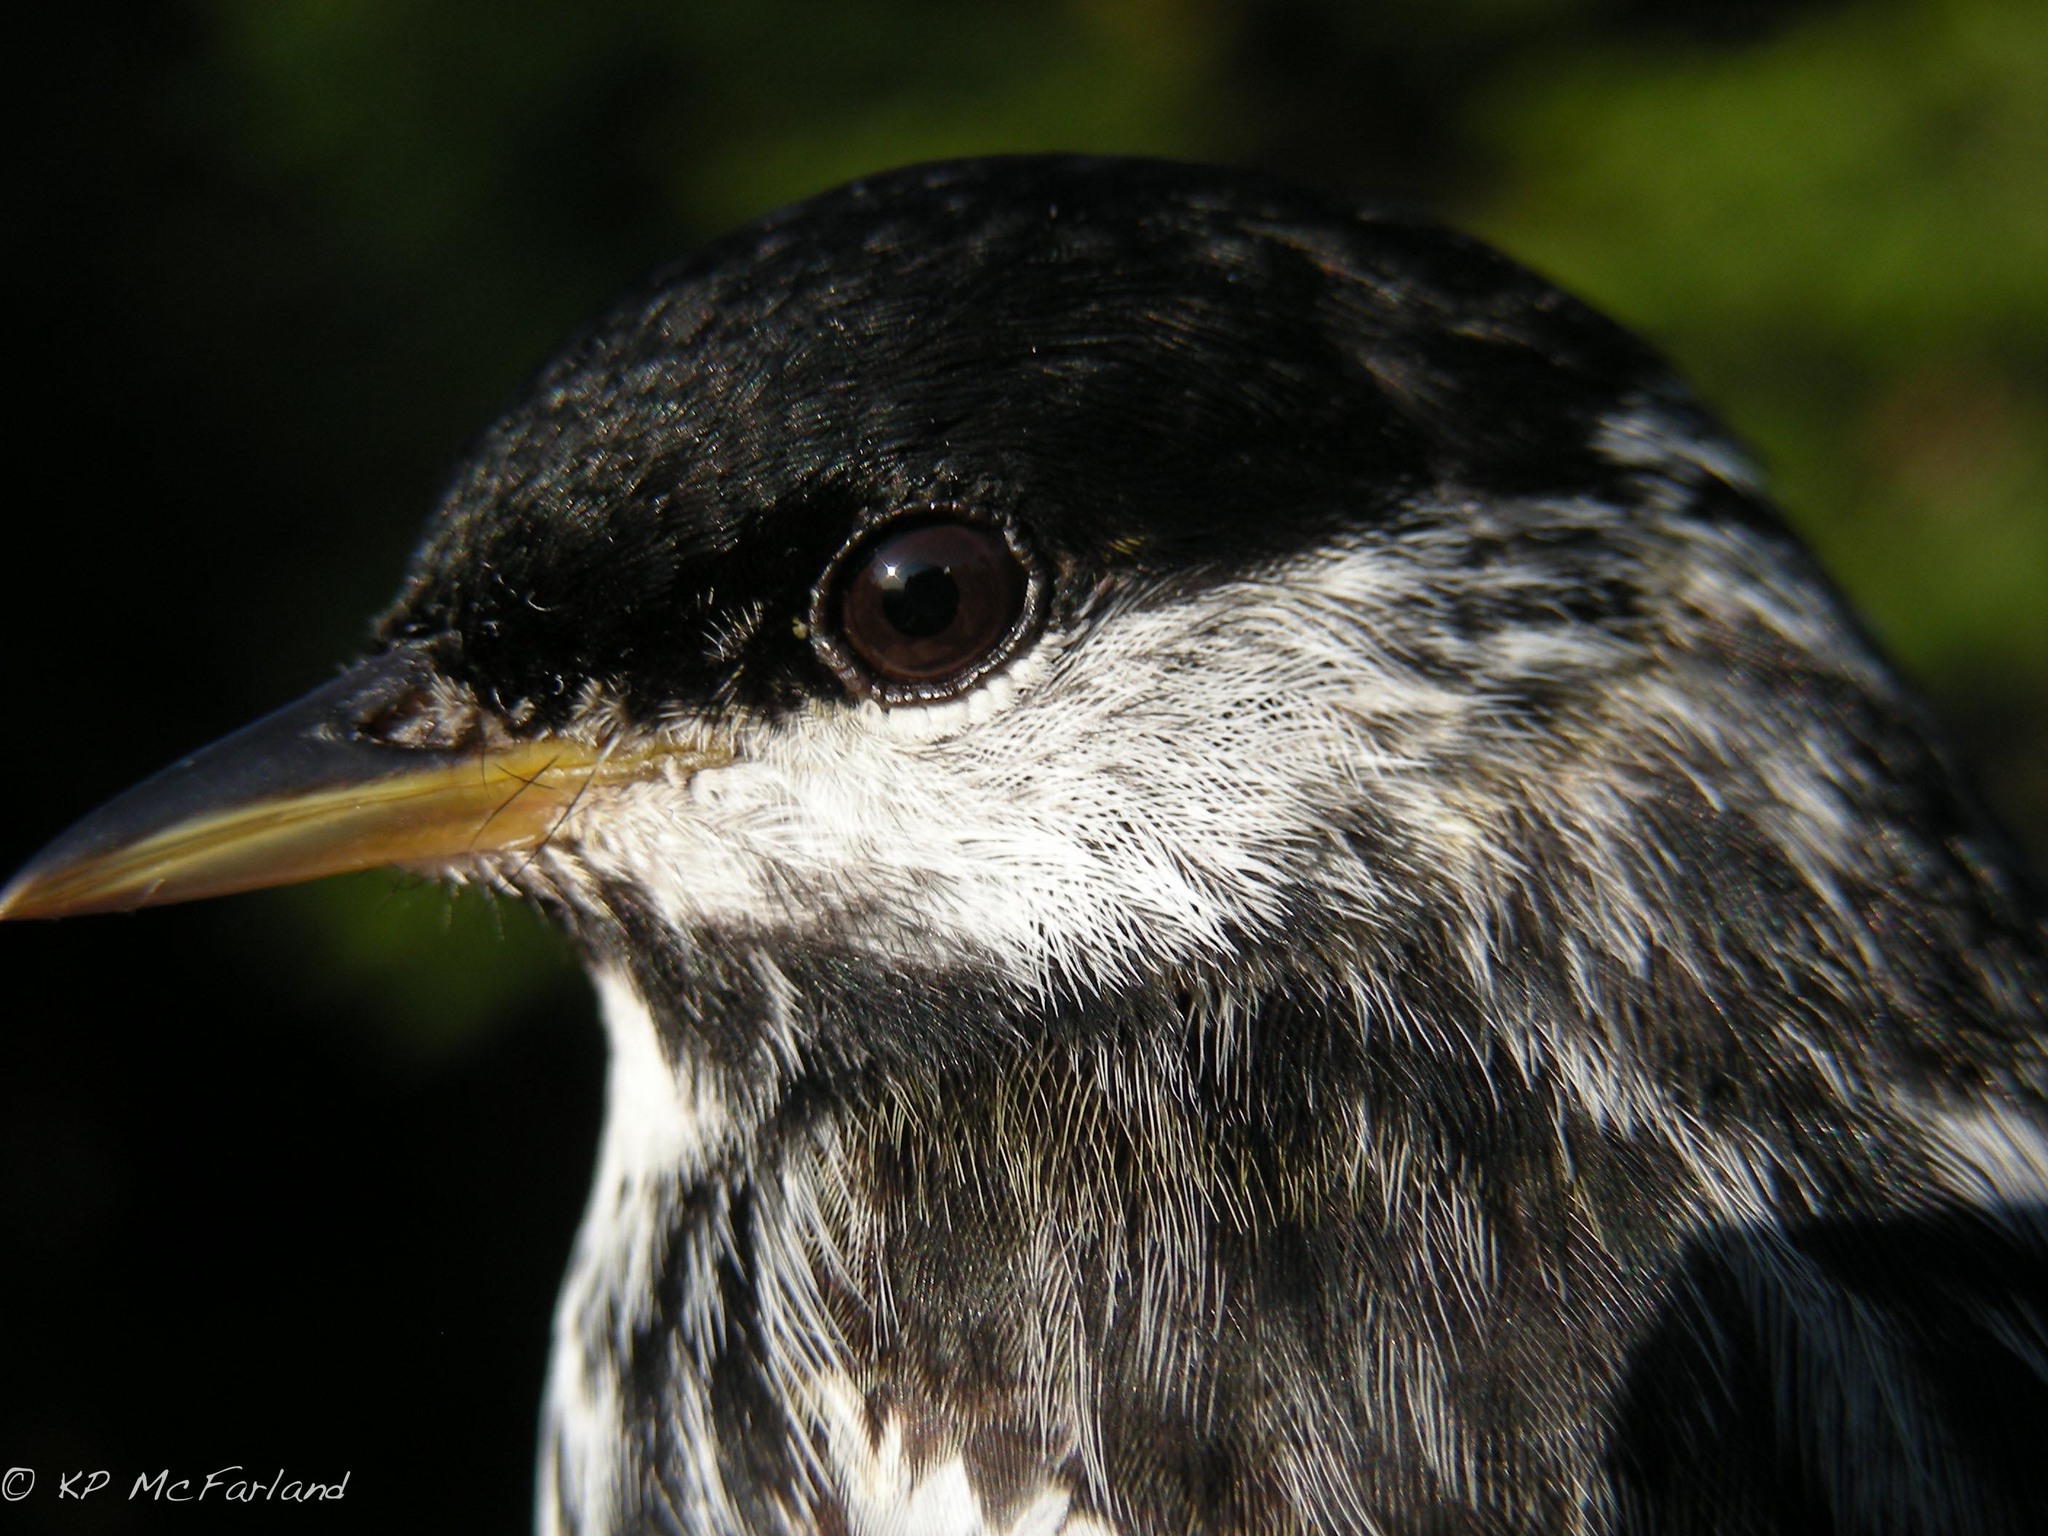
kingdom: Animalia
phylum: Chordata
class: Aves
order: Passeriformes
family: Parulidae
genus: Setophaga
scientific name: Setophaga striata
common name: Blackpoll warbler
